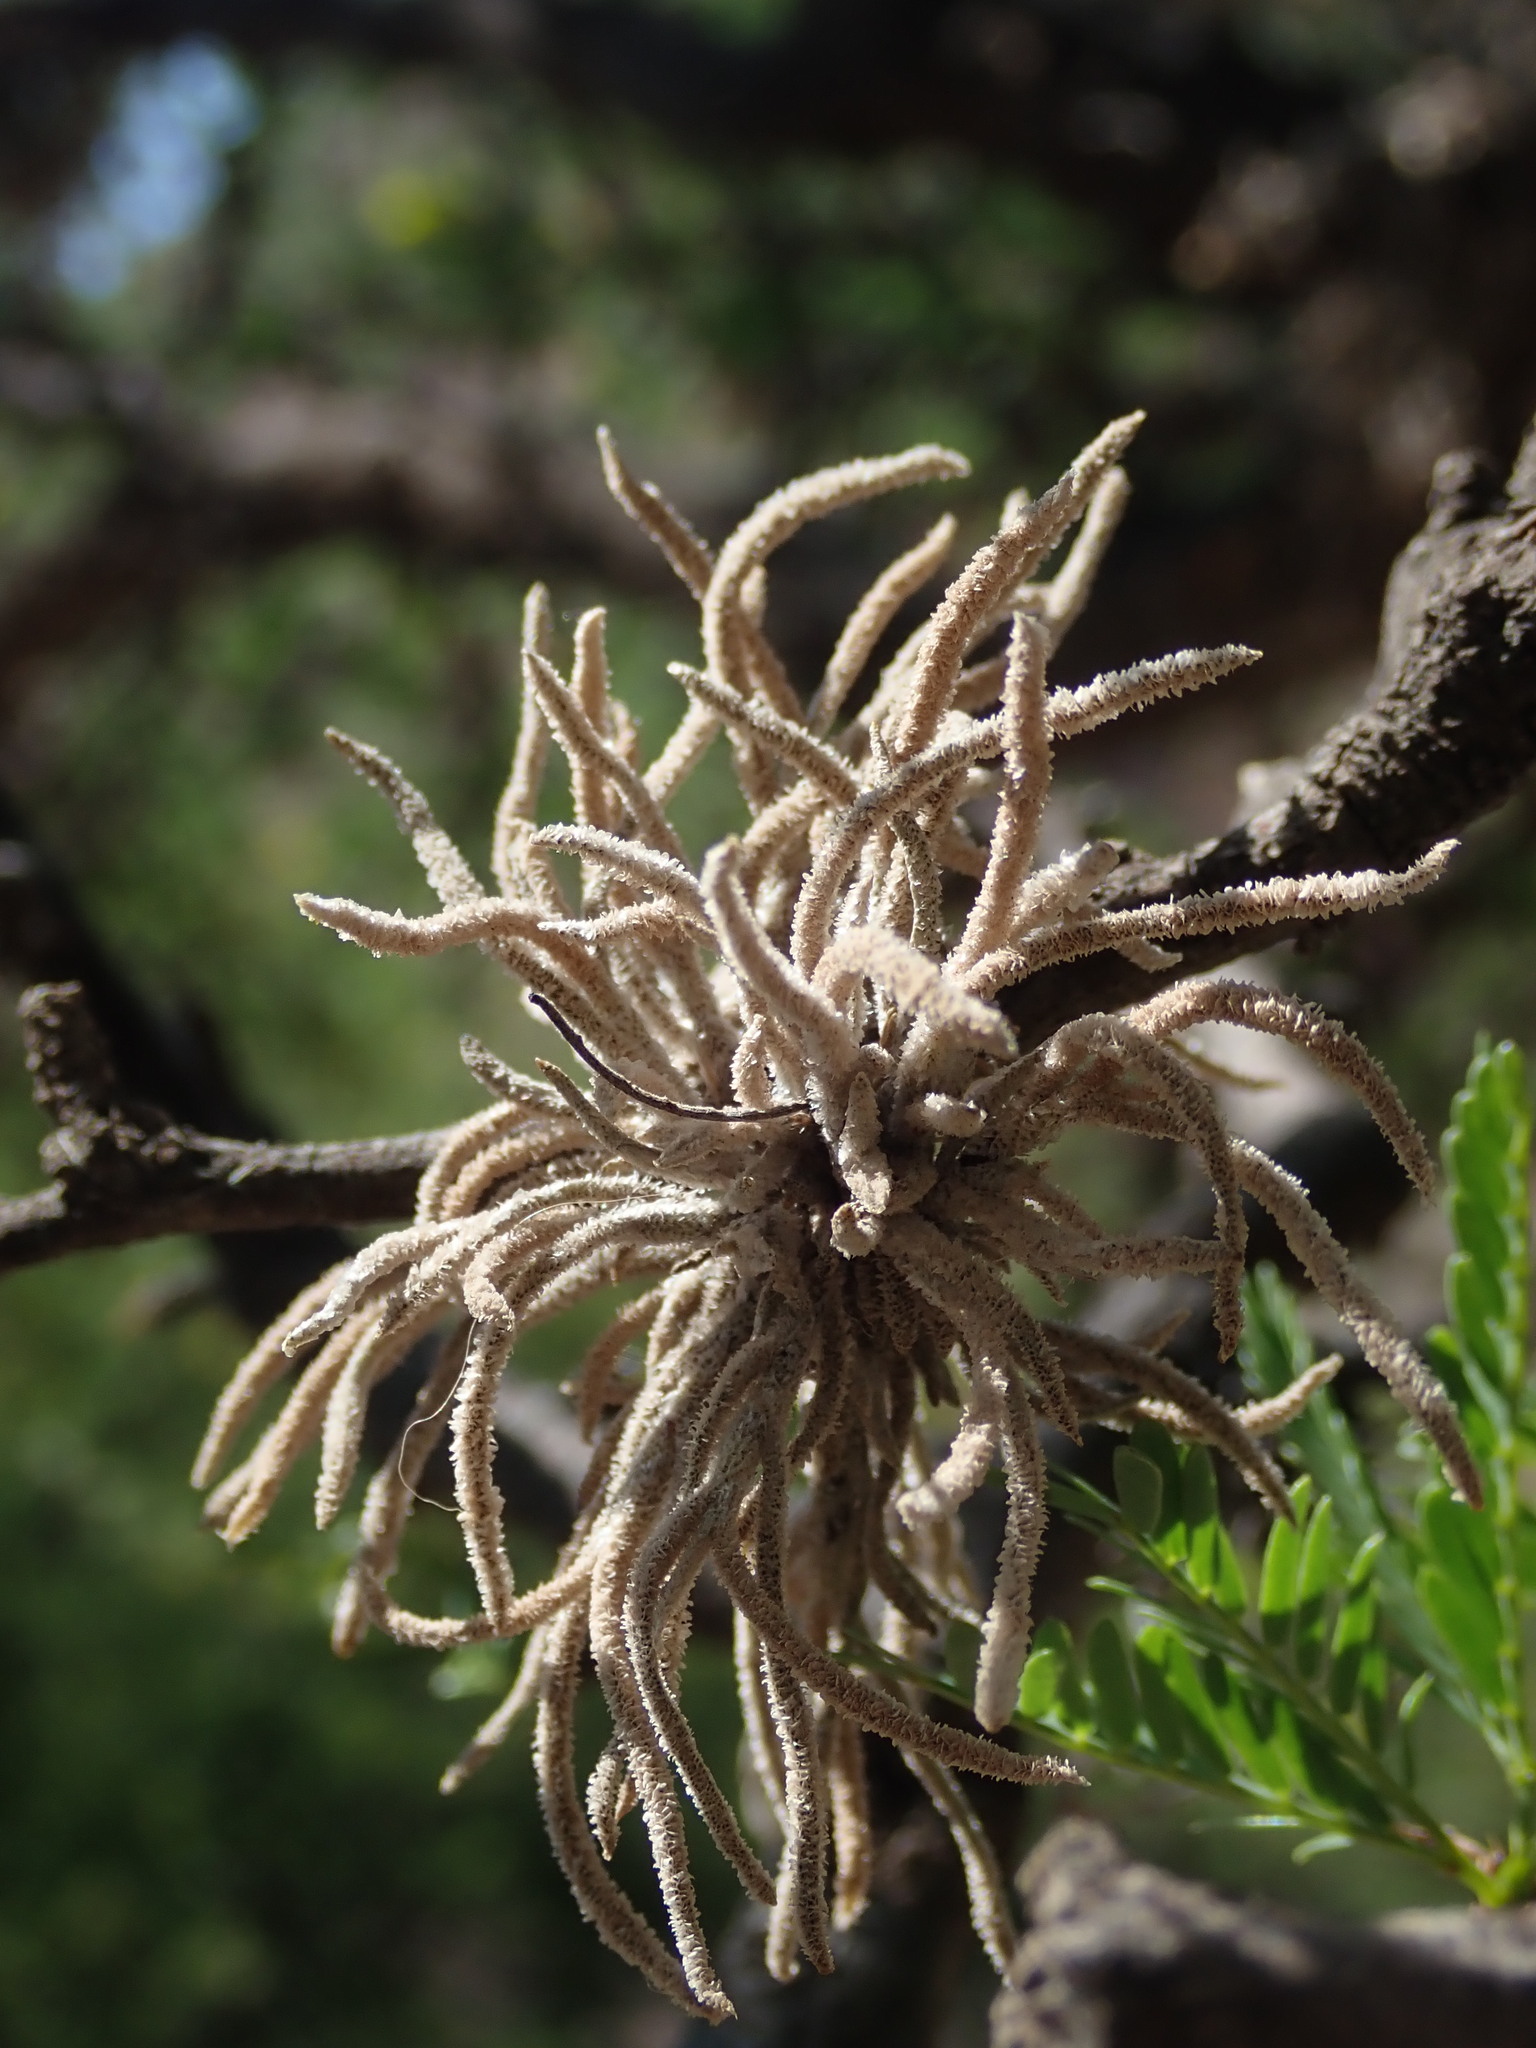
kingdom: Plantae
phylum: Tracheophyta
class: Liliopsida
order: Poales
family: Bromeliaceae
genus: Tillandsia
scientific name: Tillandsia virescens
